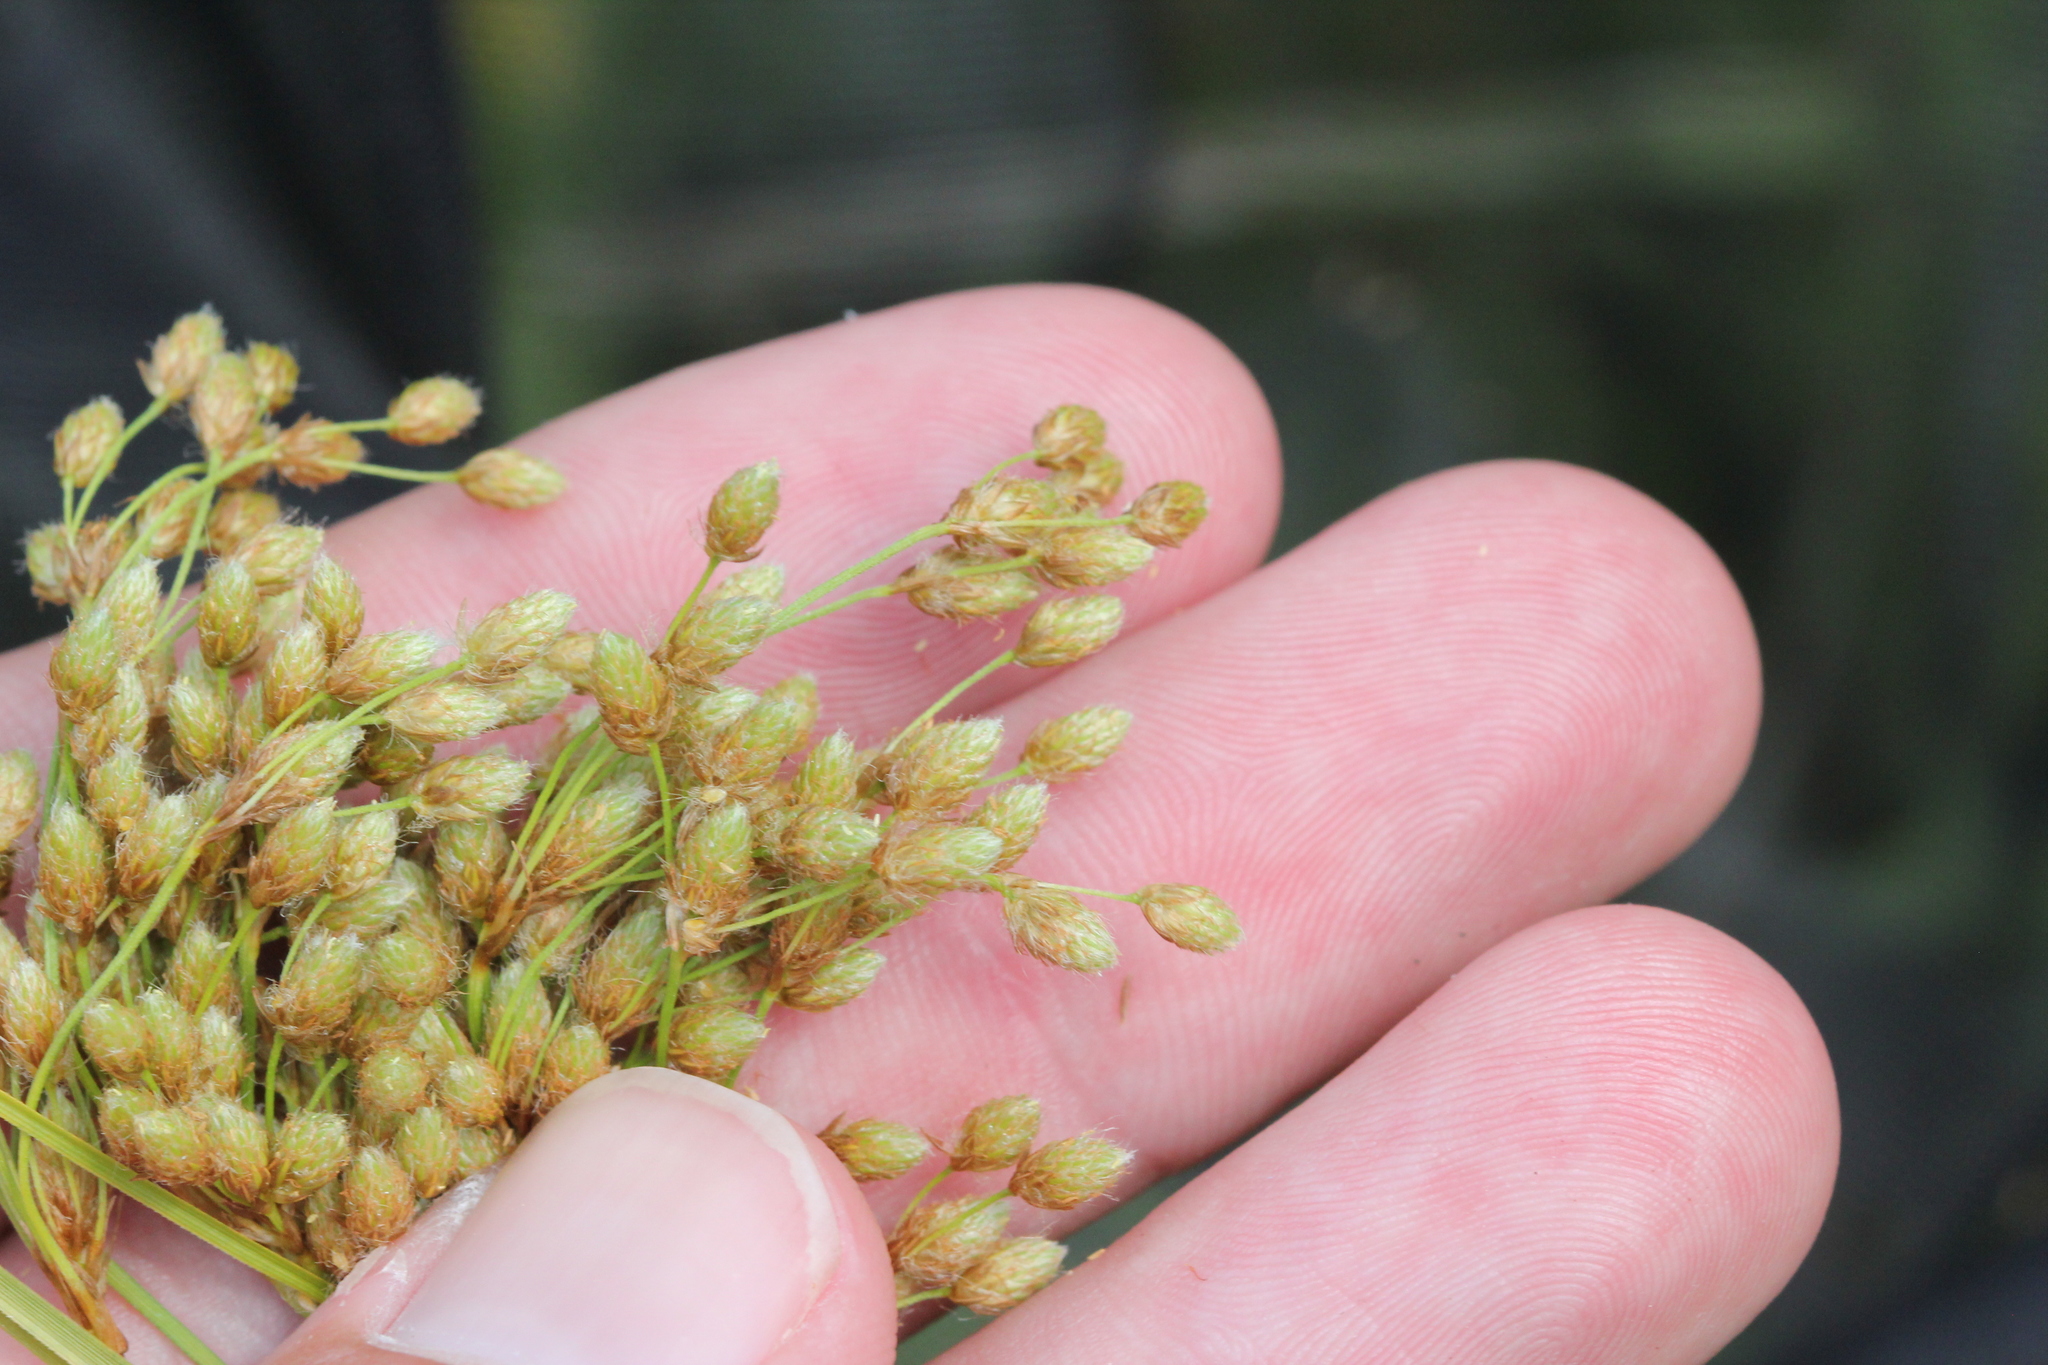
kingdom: Plantae
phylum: Tracheophyta
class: Liliopsida
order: Poales
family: Cyperaceae
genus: Scirpus
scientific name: Scirpus pedicellatus
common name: Pedicelled bulrush
